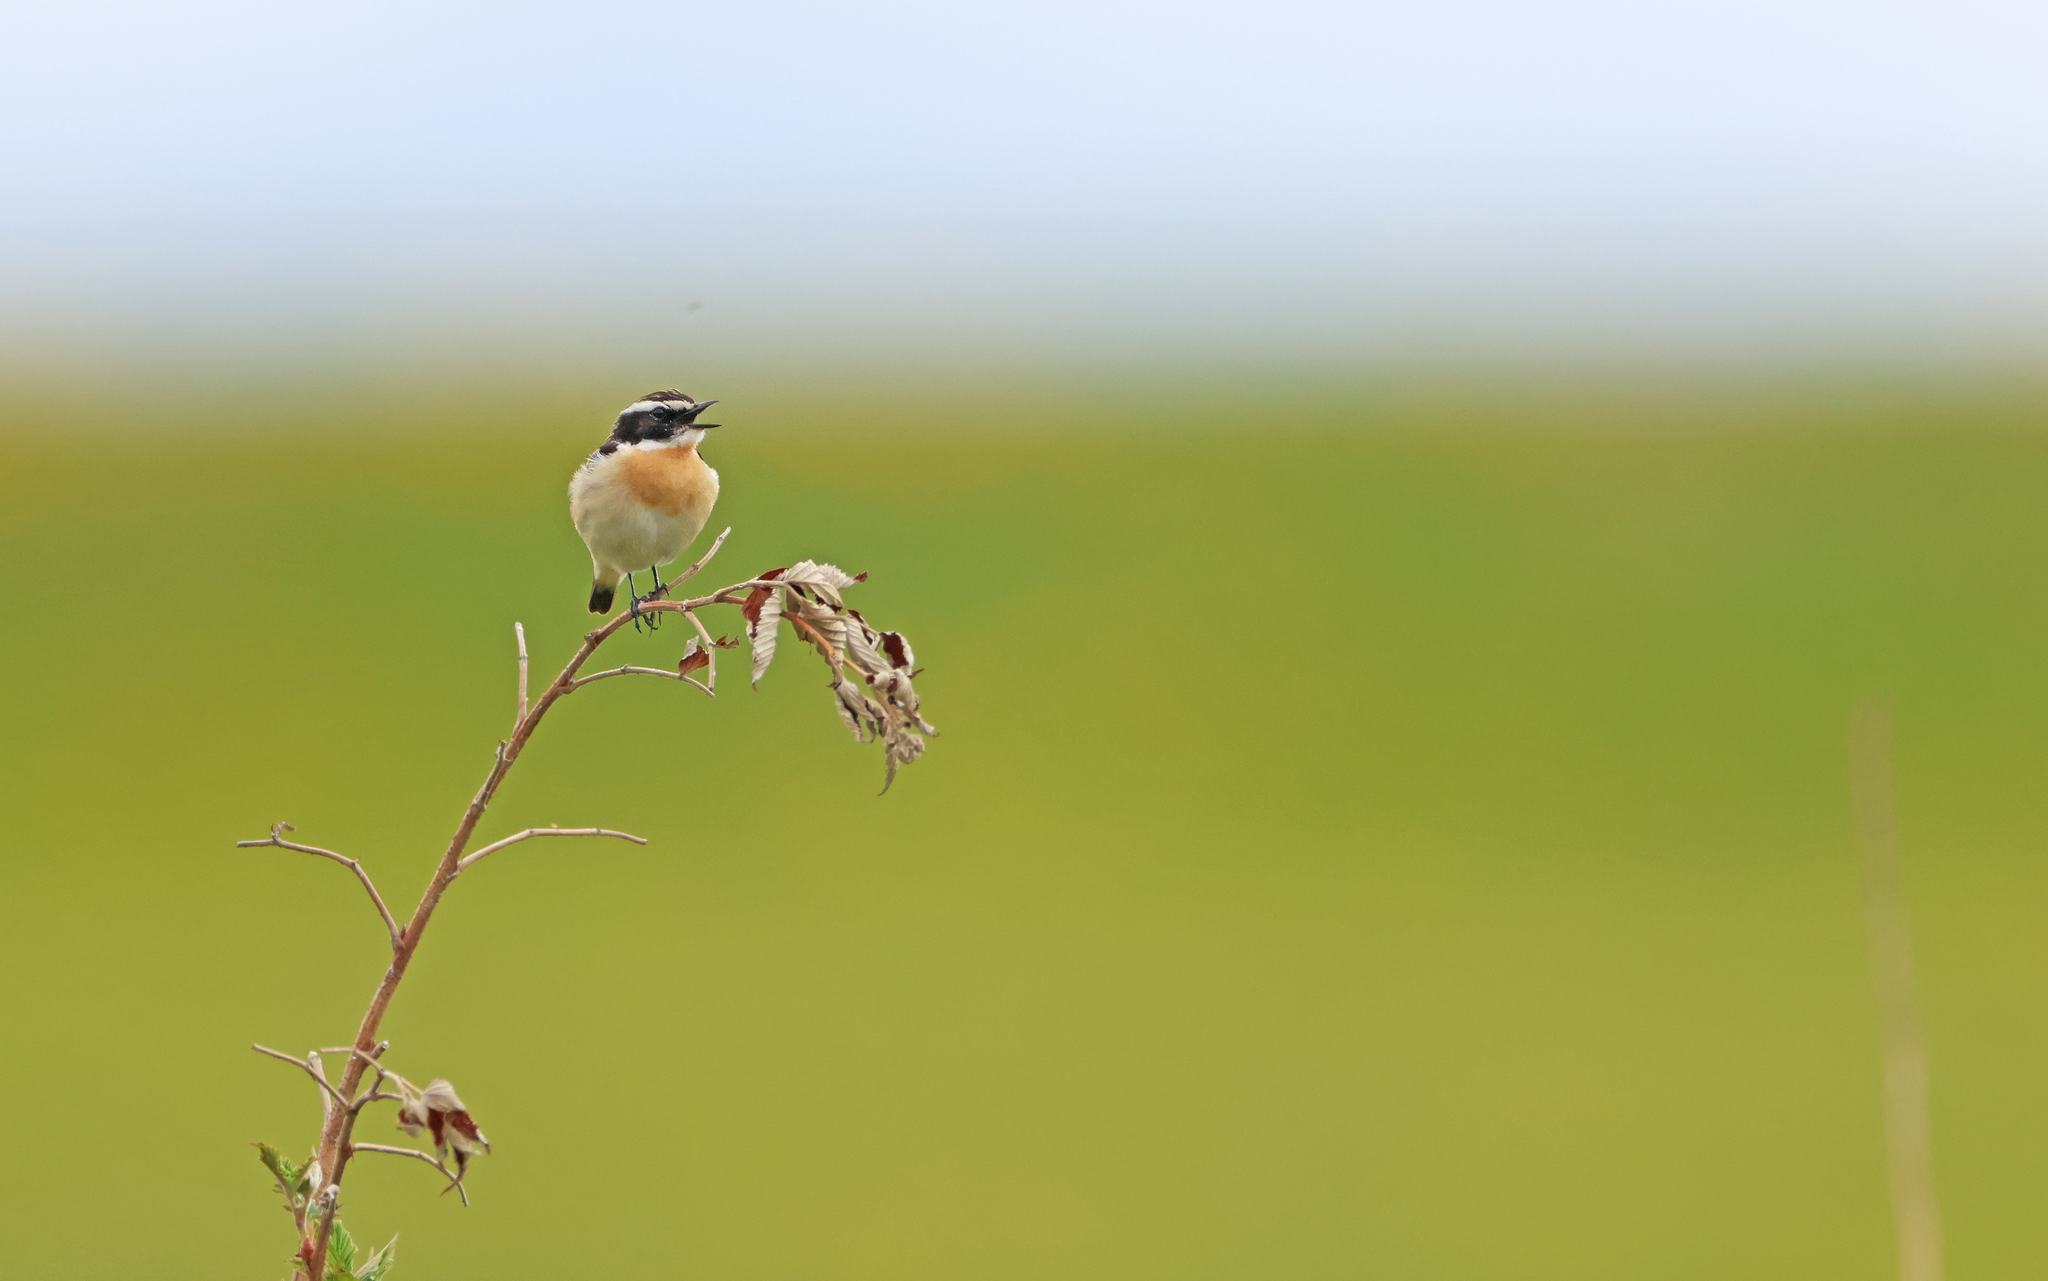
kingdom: Animalia
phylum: Chordata
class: Aves
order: Passeriformes
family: Muscicapidae
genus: Saxicola
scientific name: Saxicola rubetra
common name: Whinchat
